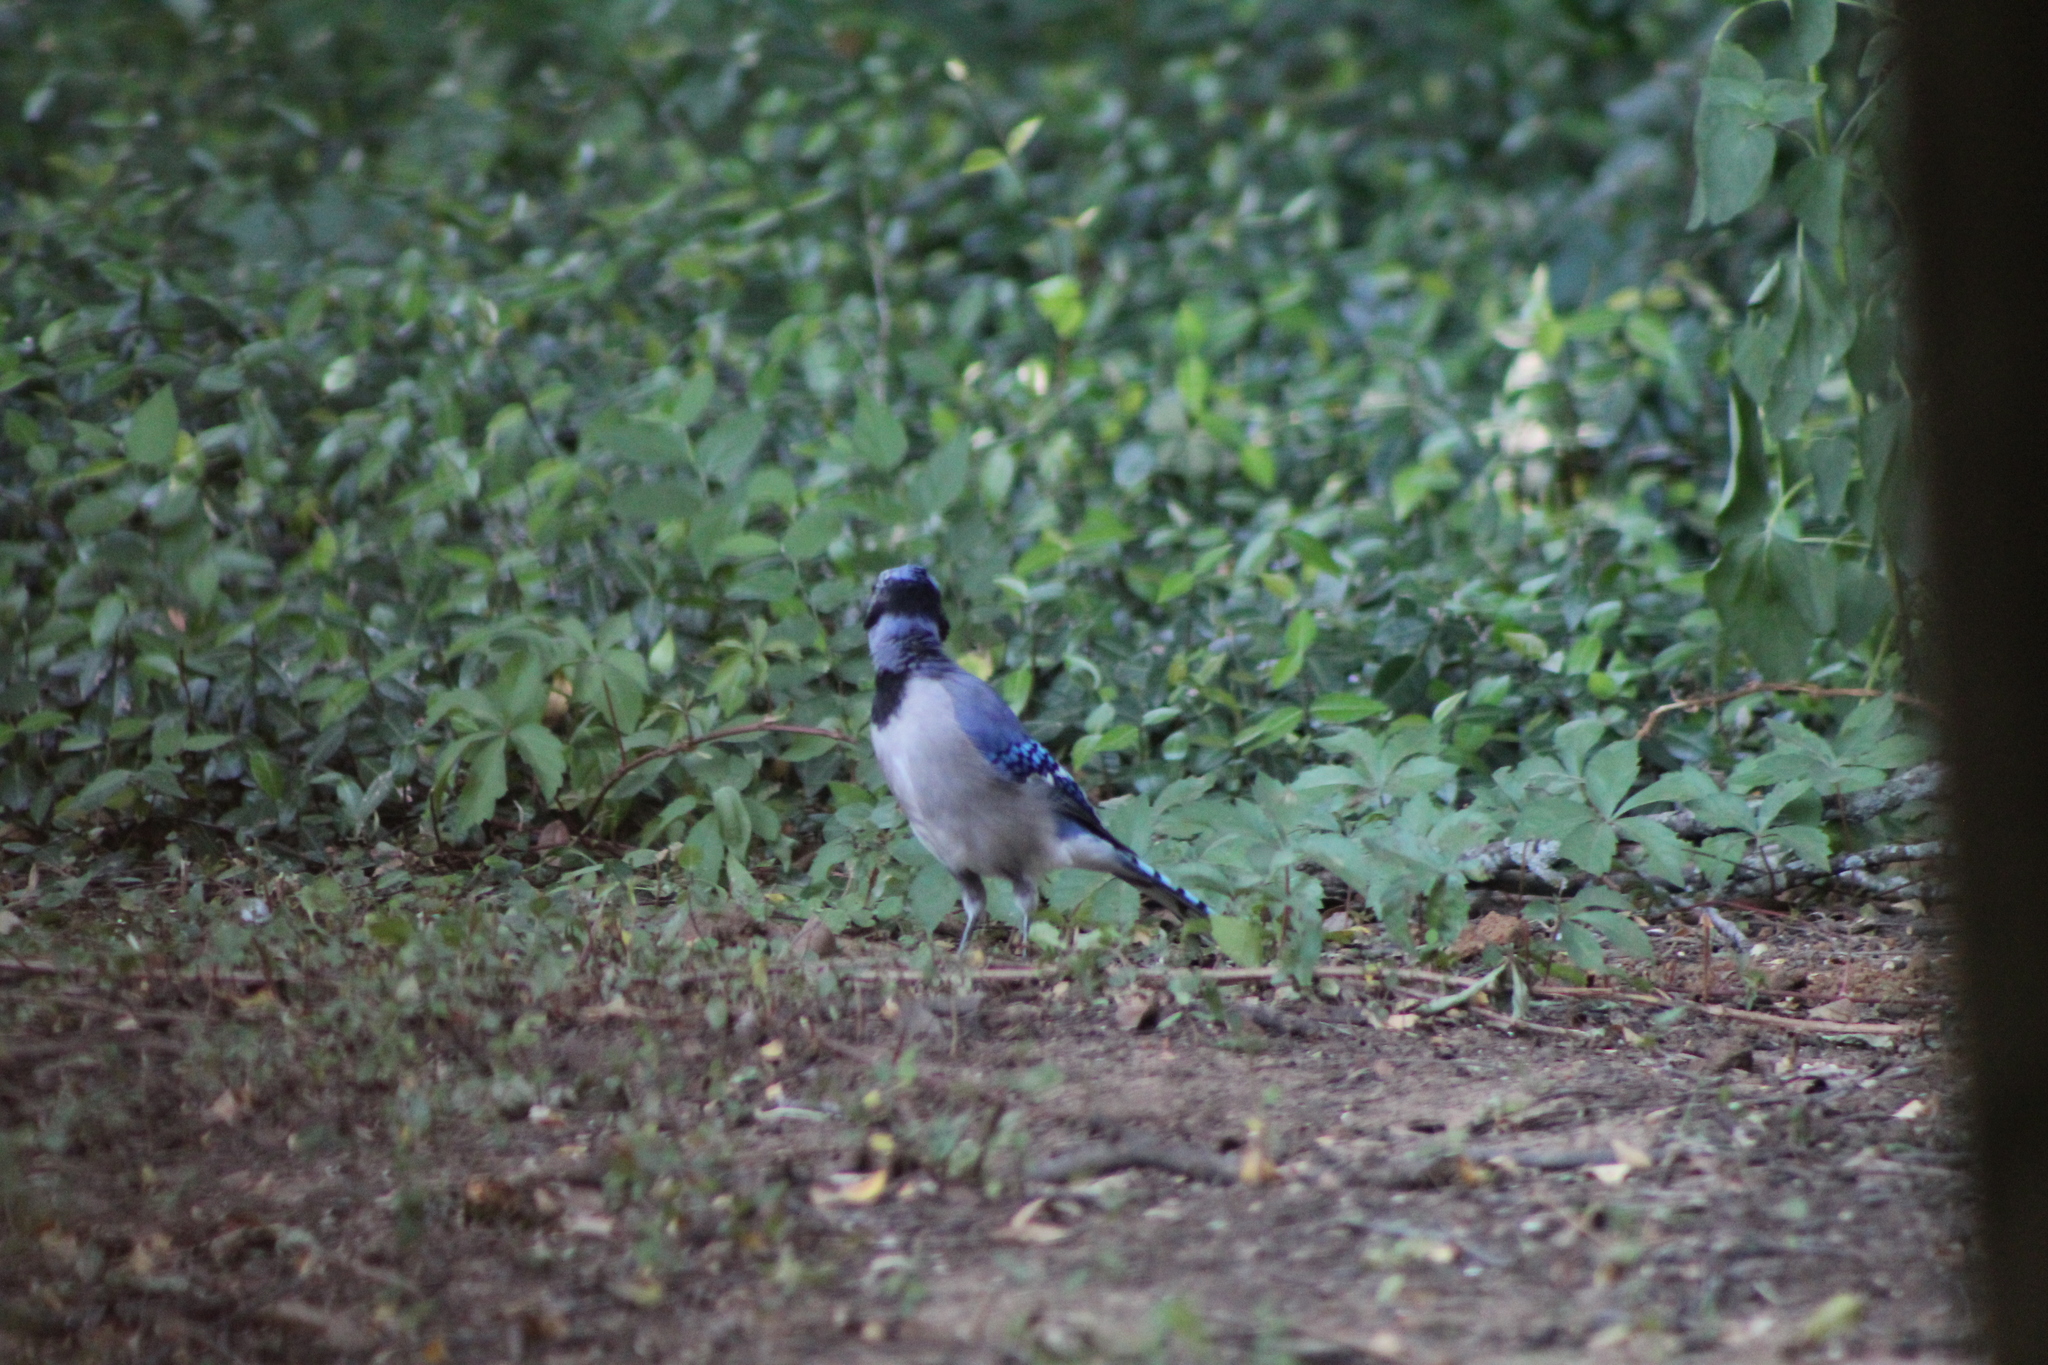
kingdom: Animalia
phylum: Chordata
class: Aves
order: Passeriformes
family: Corvidae
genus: Cyanocitta
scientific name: Cyanocitta cristata
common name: Blue jay
